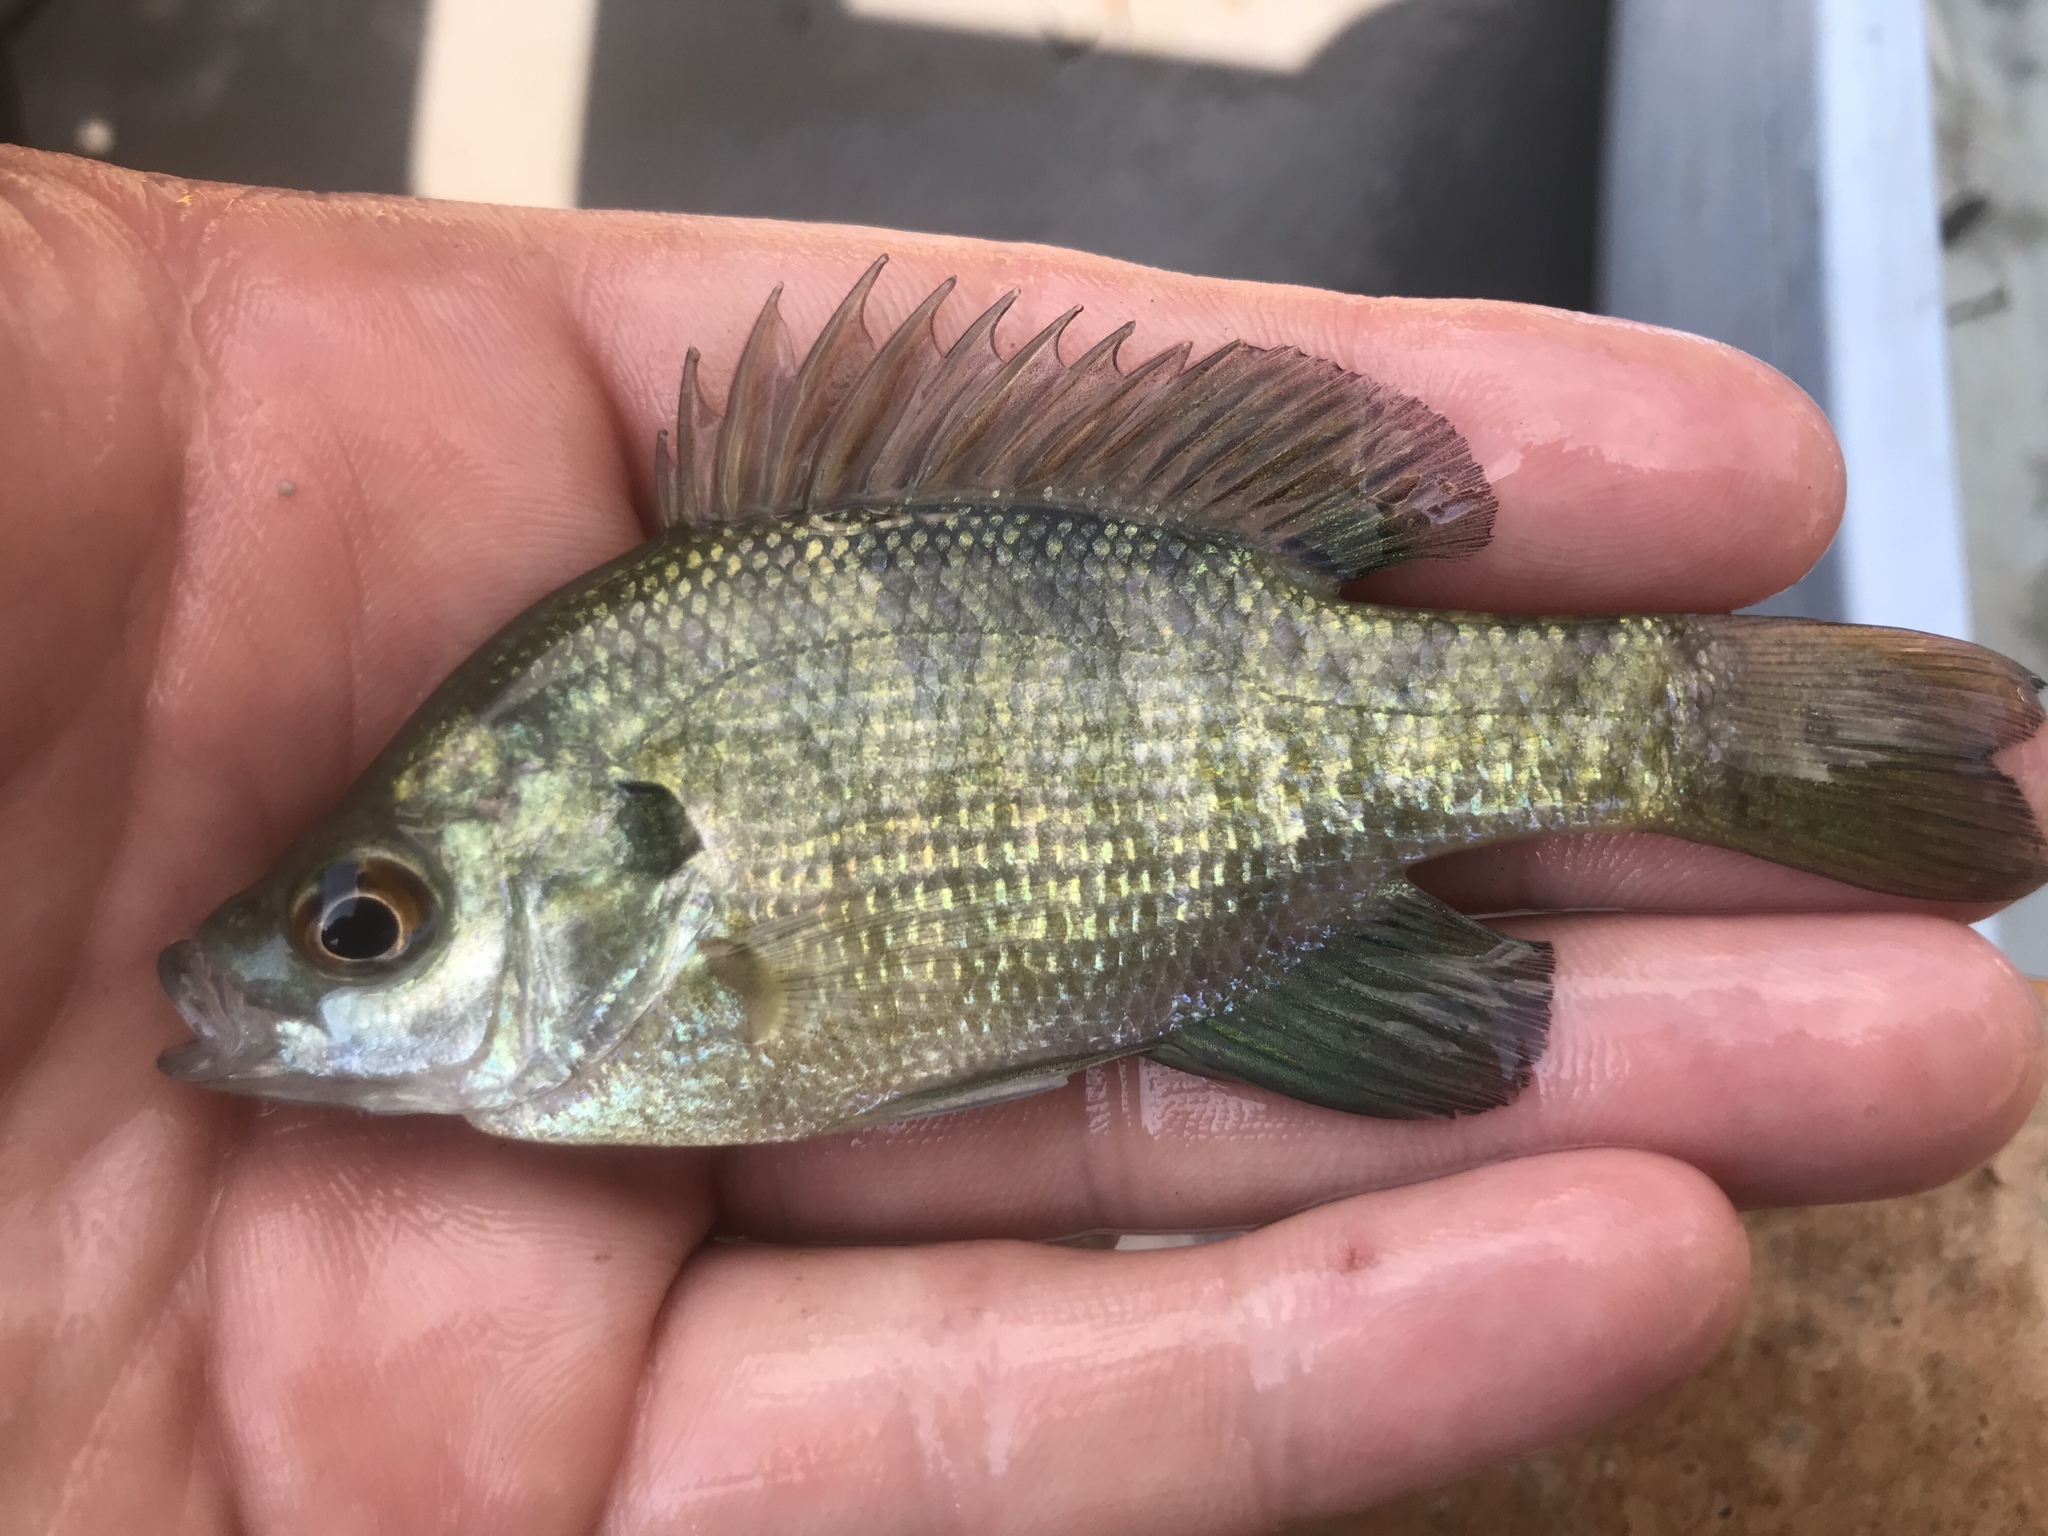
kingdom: Animalia
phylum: Chordata
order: Perciformes
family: Centrarchidae
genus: Lepomis
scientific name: Lepomis macrochirus
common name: Bluegill
